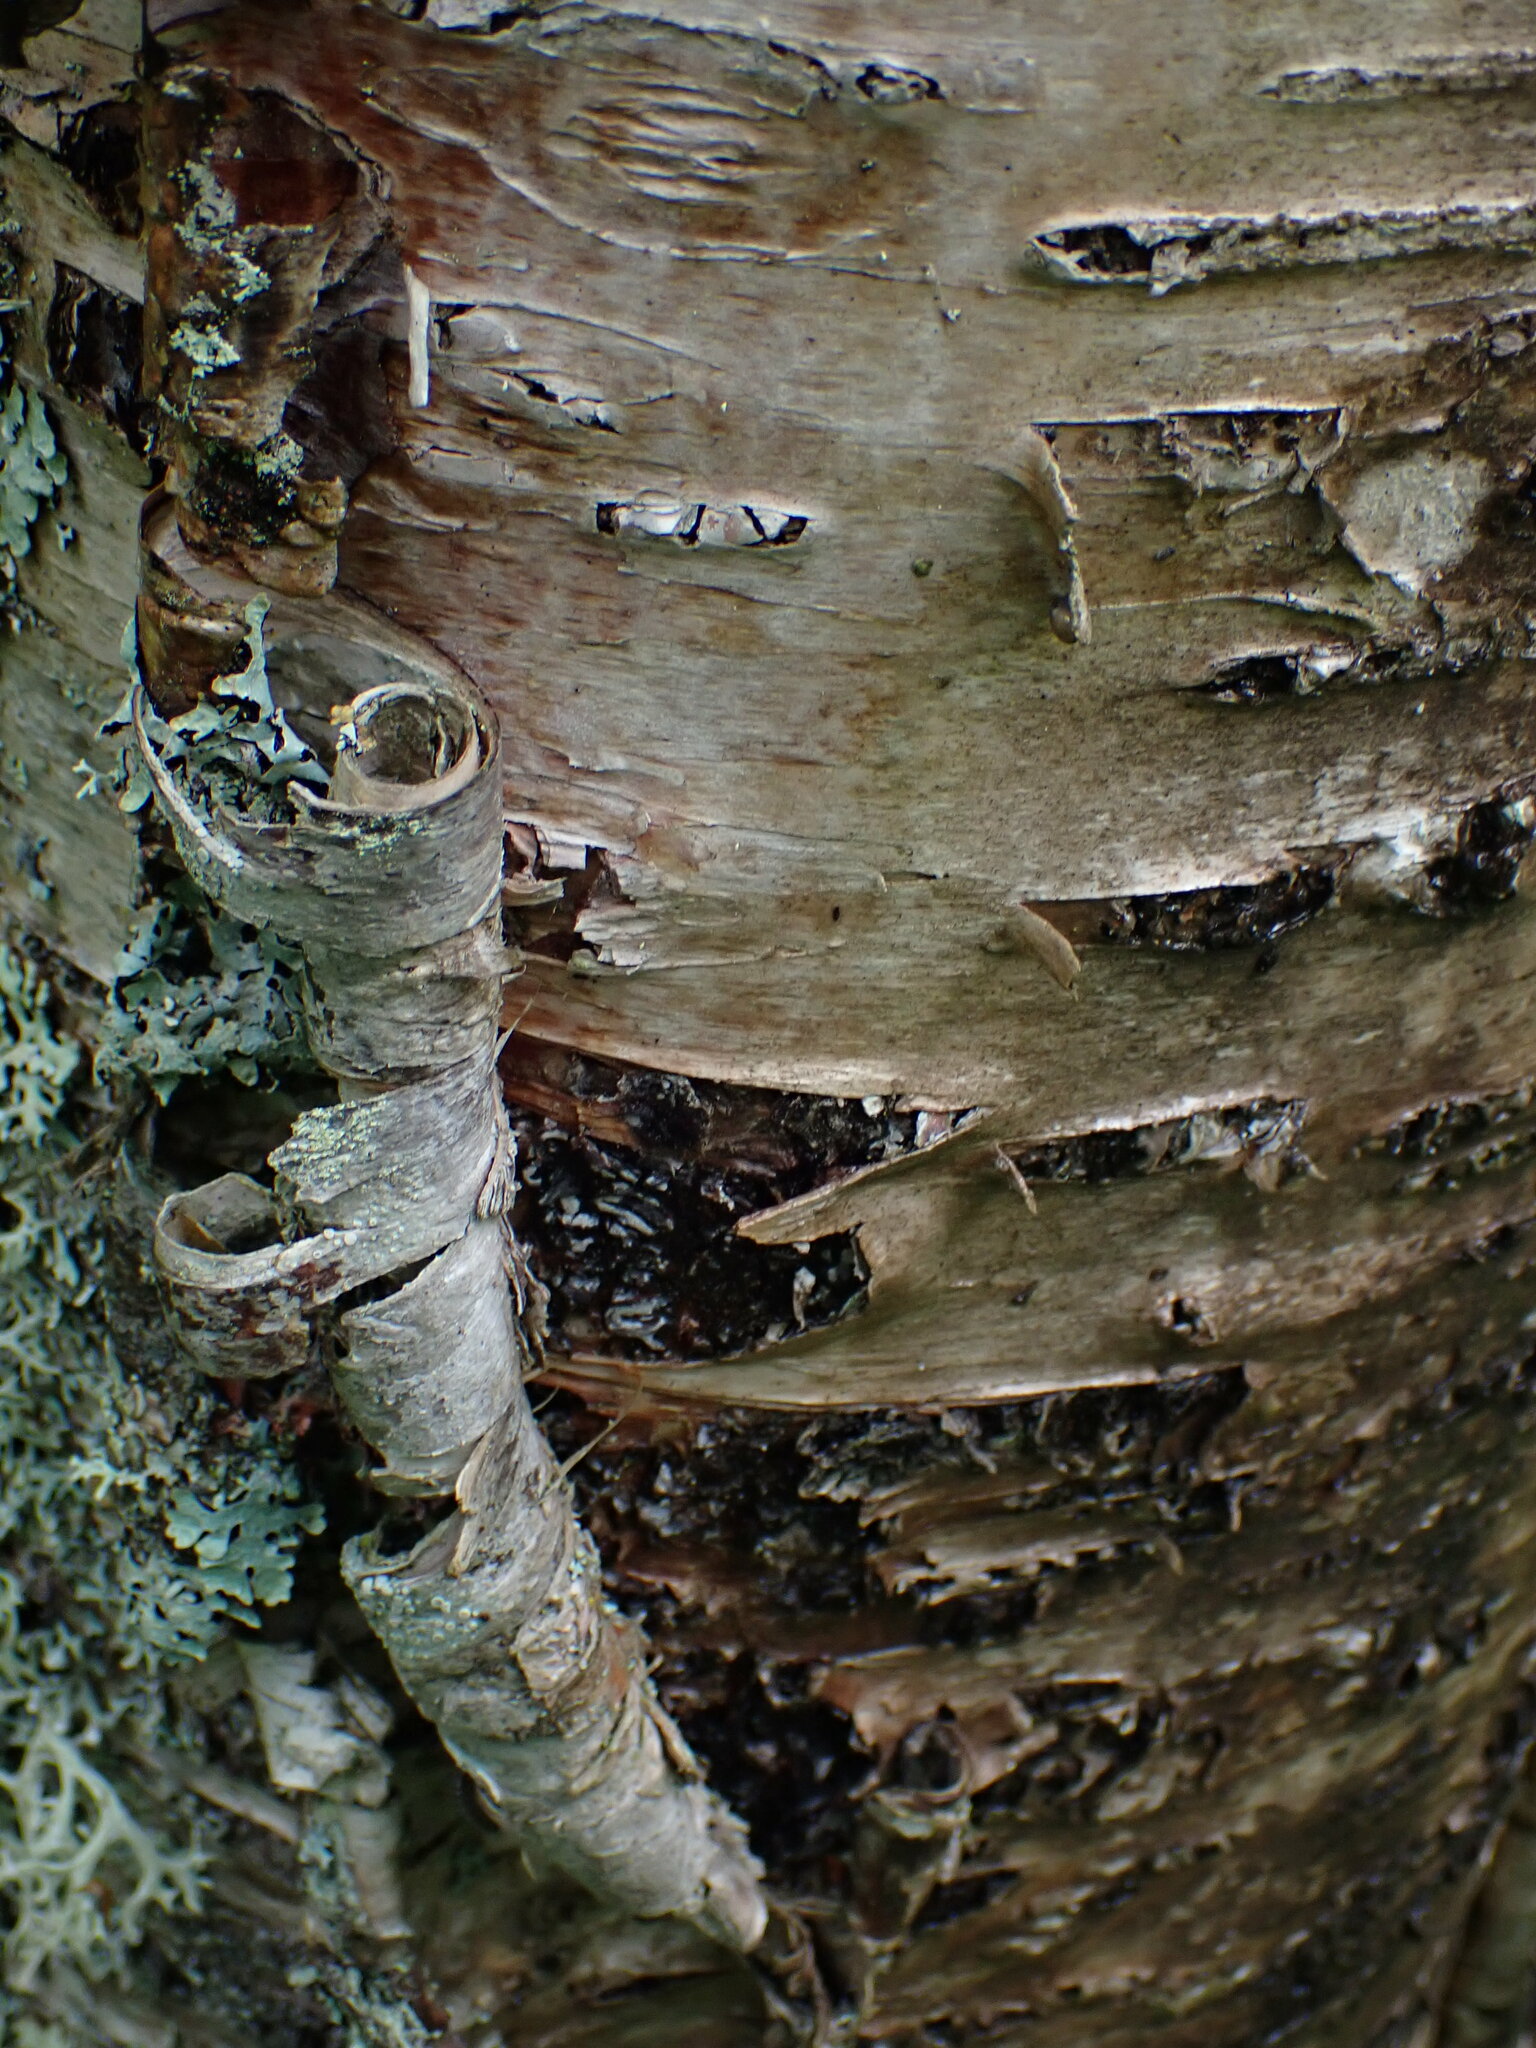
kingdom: Plantae
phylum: Tracheophyta
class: Magnoliopsida
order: Fagales
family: Betulaceae
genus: Betula
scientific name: Betula papyrifera
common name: Paper birch
